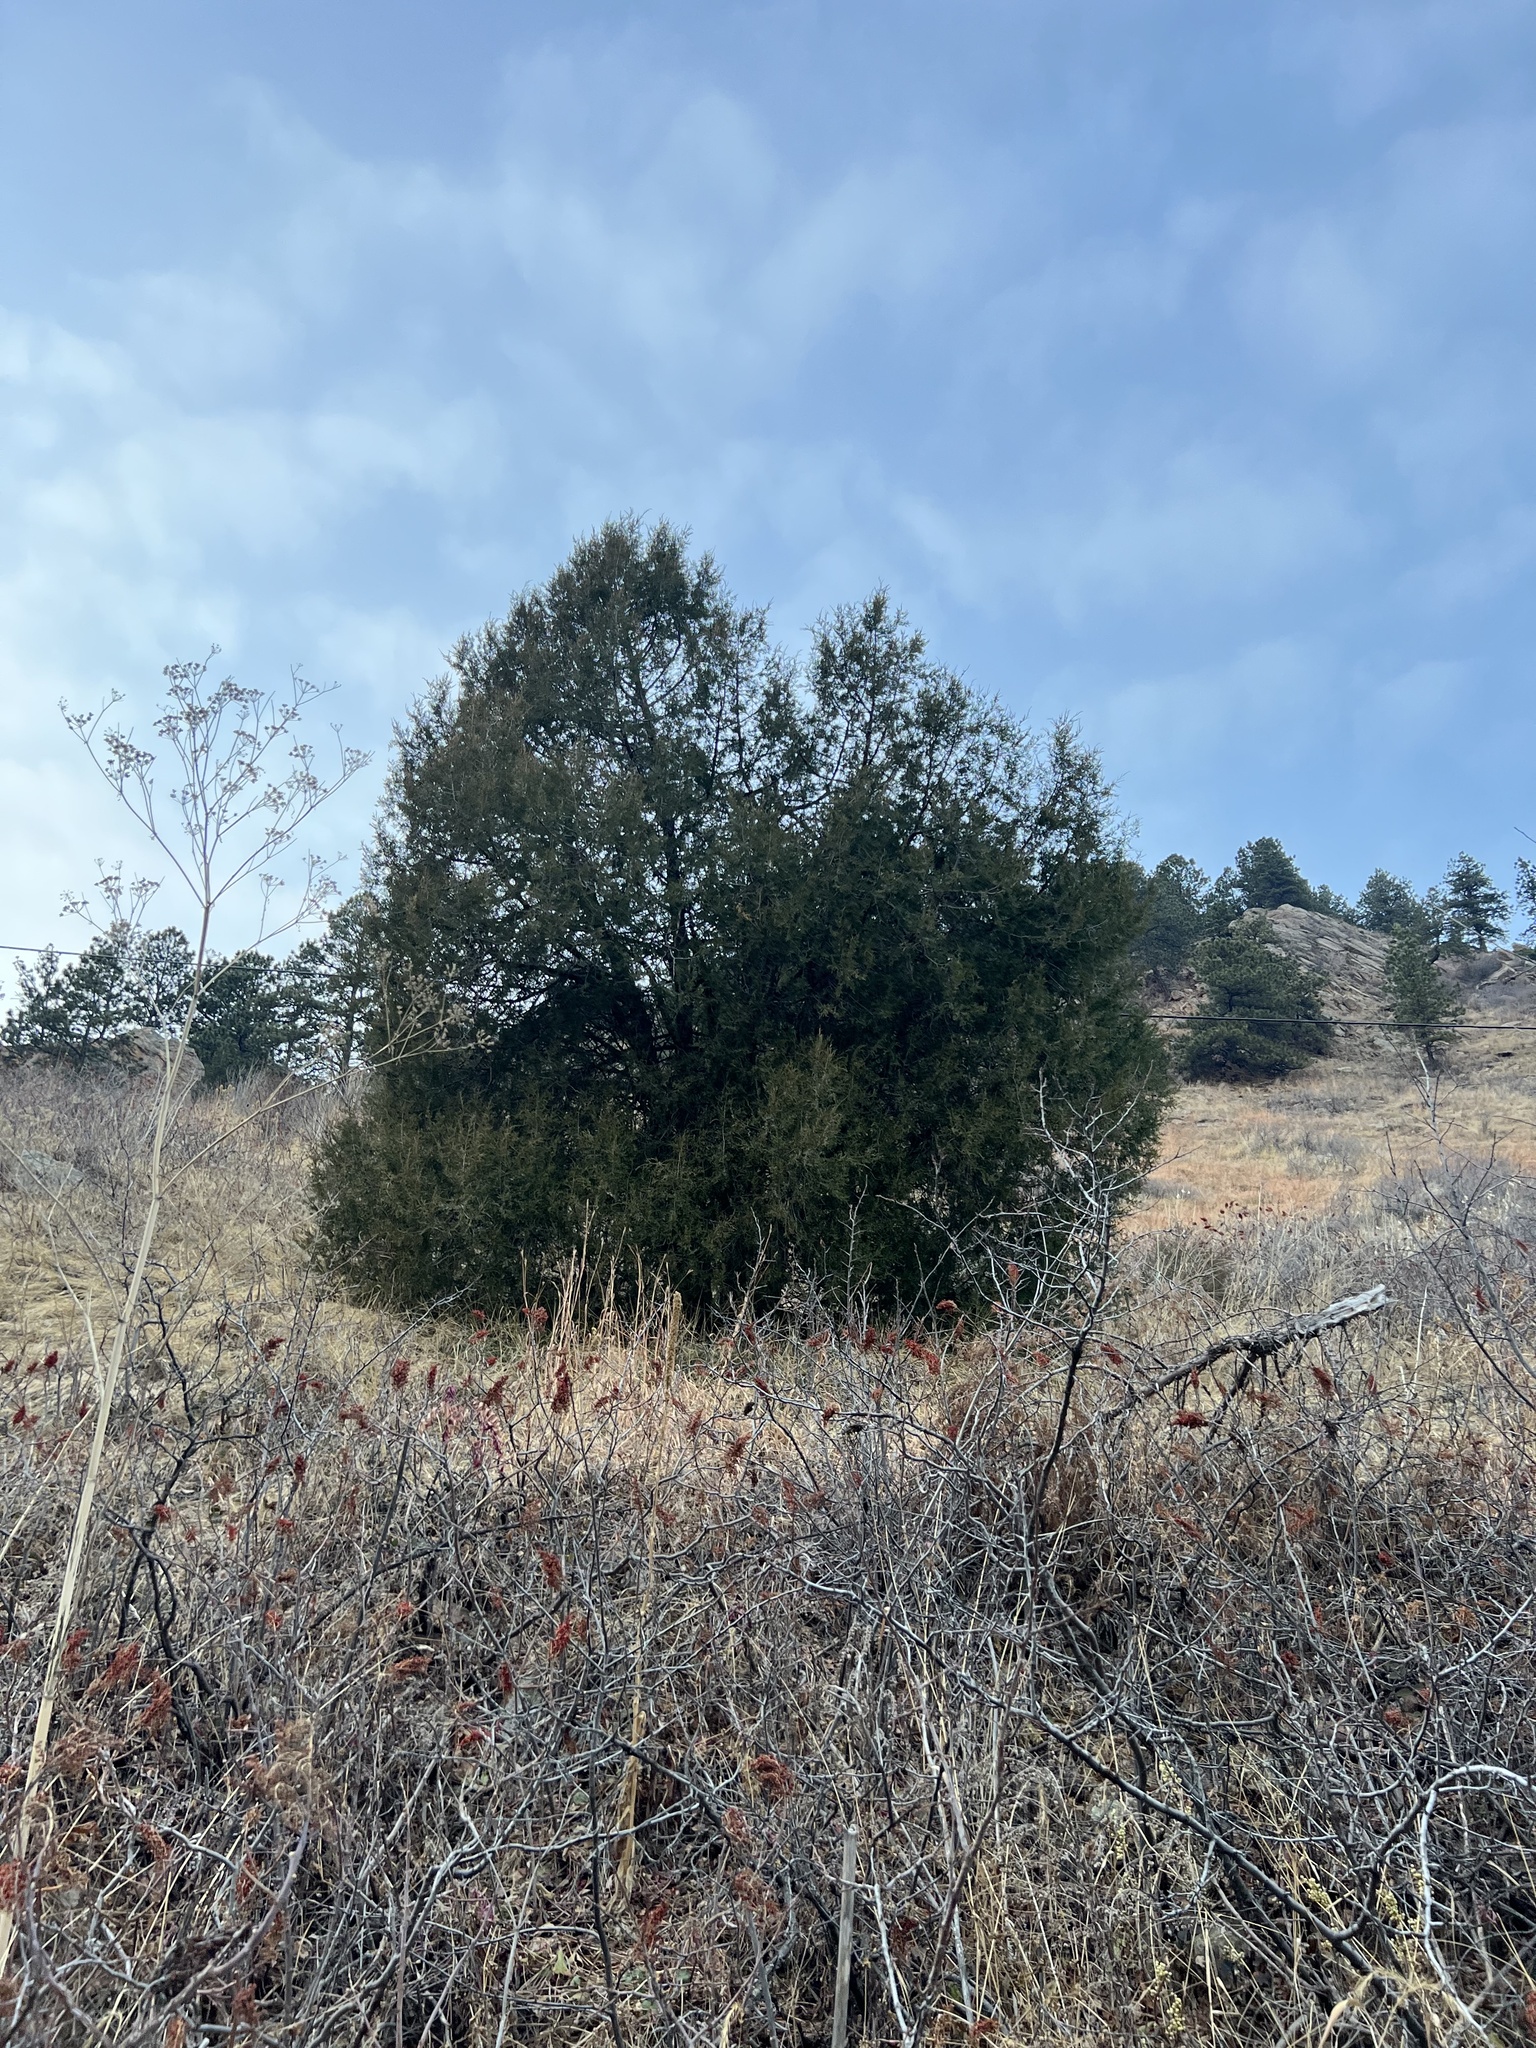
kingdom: Plantae
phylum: Tracheophyta
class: Pinopsida
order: Pinales
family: Cupressaceae
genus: Juniperus
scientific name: Juniperus scopulorum
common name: Rocky mountain juniper
